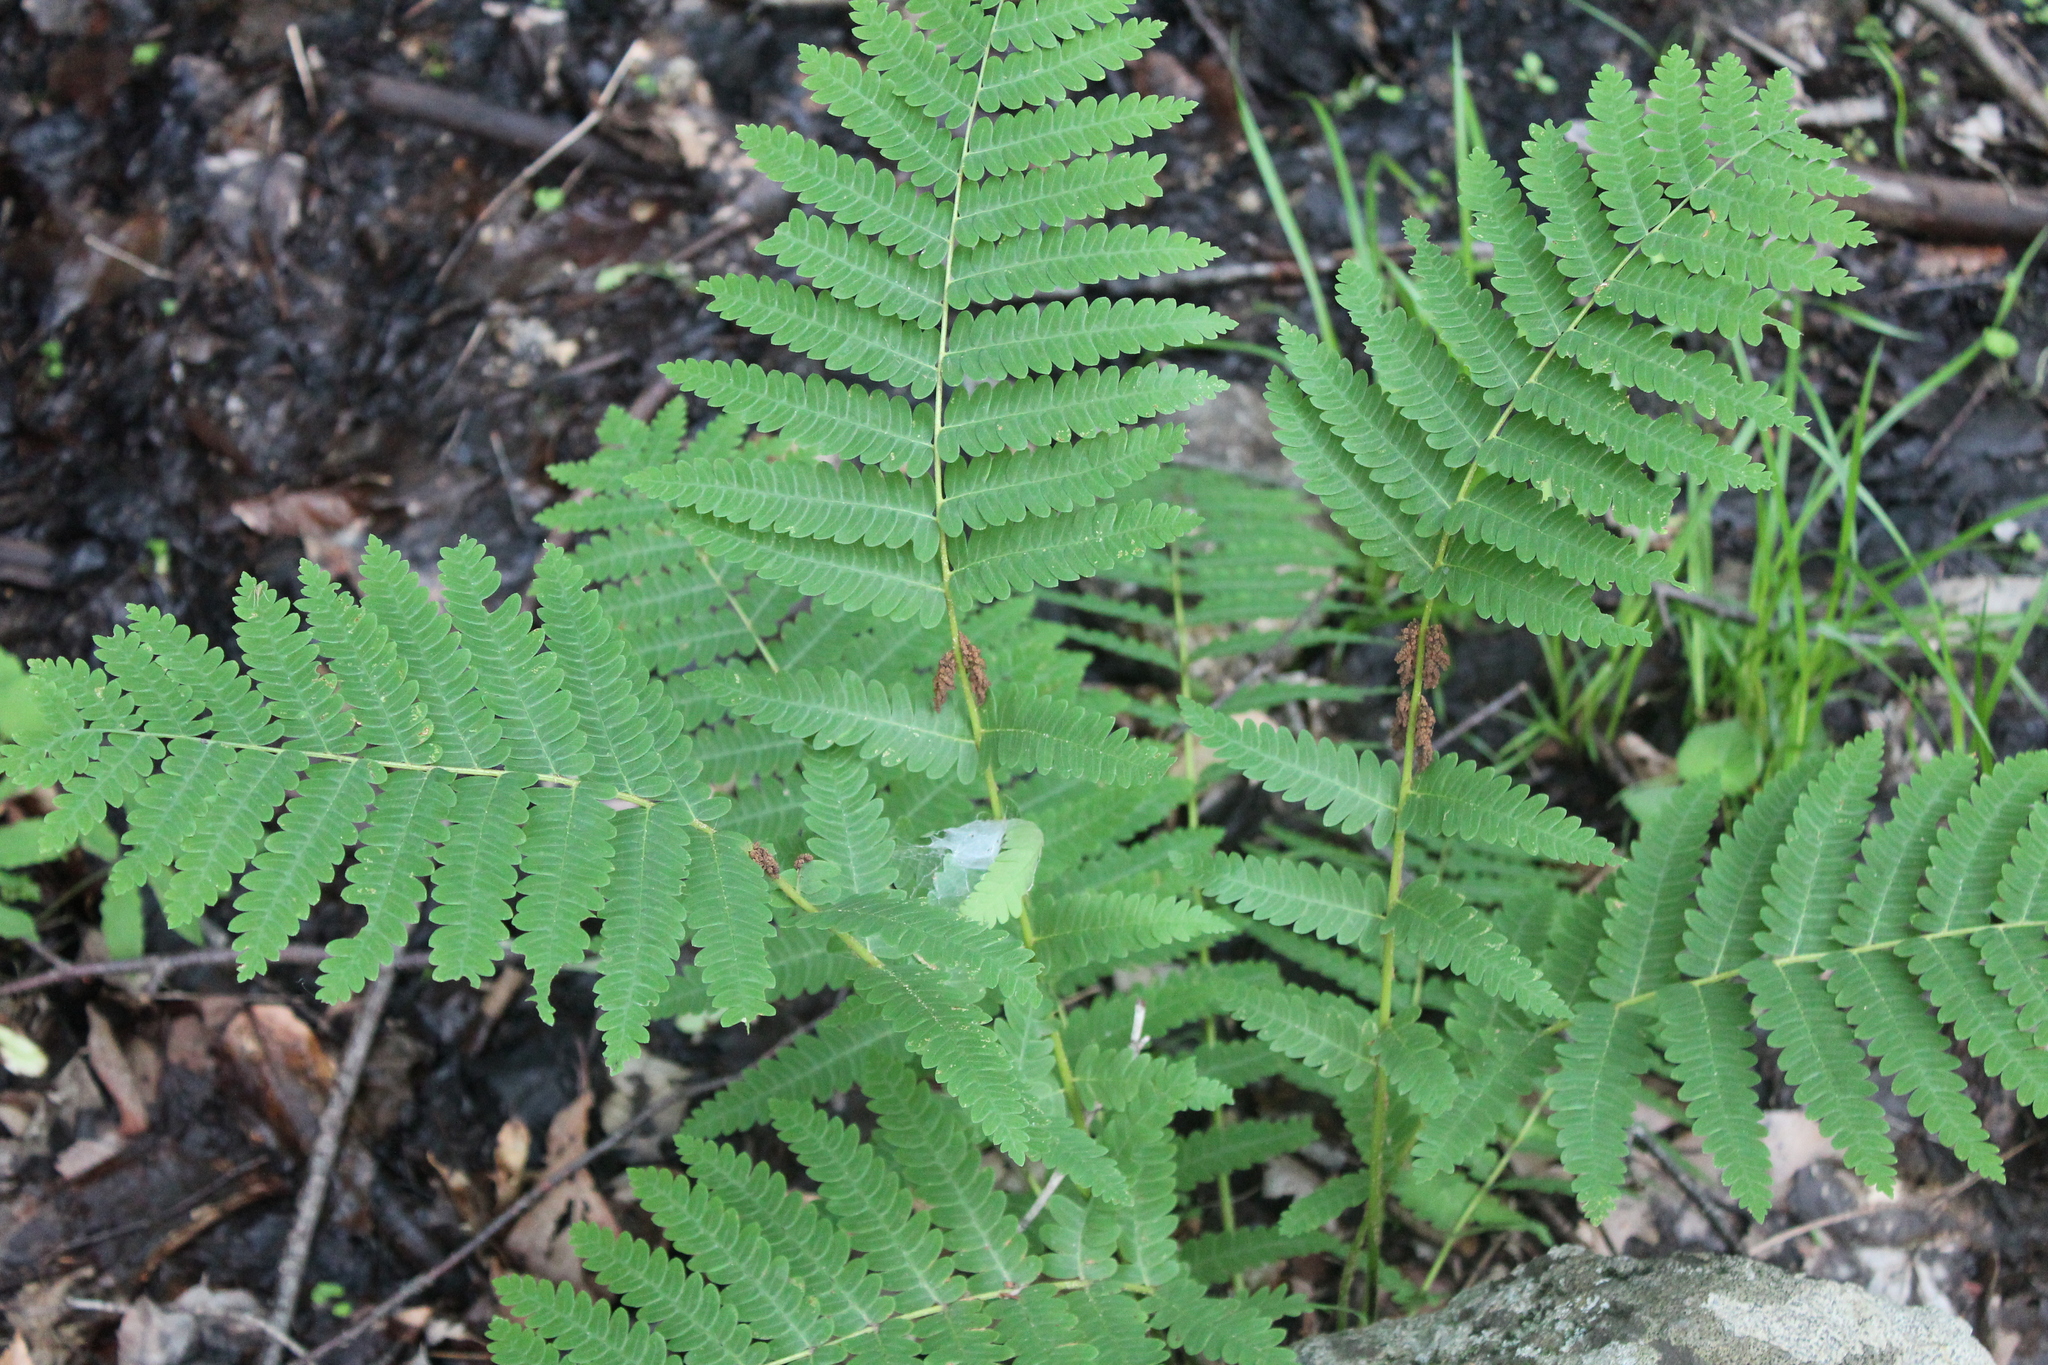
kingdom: Plantae
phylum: Tracheophyta
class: Polypodiopsida
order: Osmundales
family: Osmundaceae
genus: Claytosmunda
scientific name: Claytosmunda claytoniana
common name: Clayton's fern
